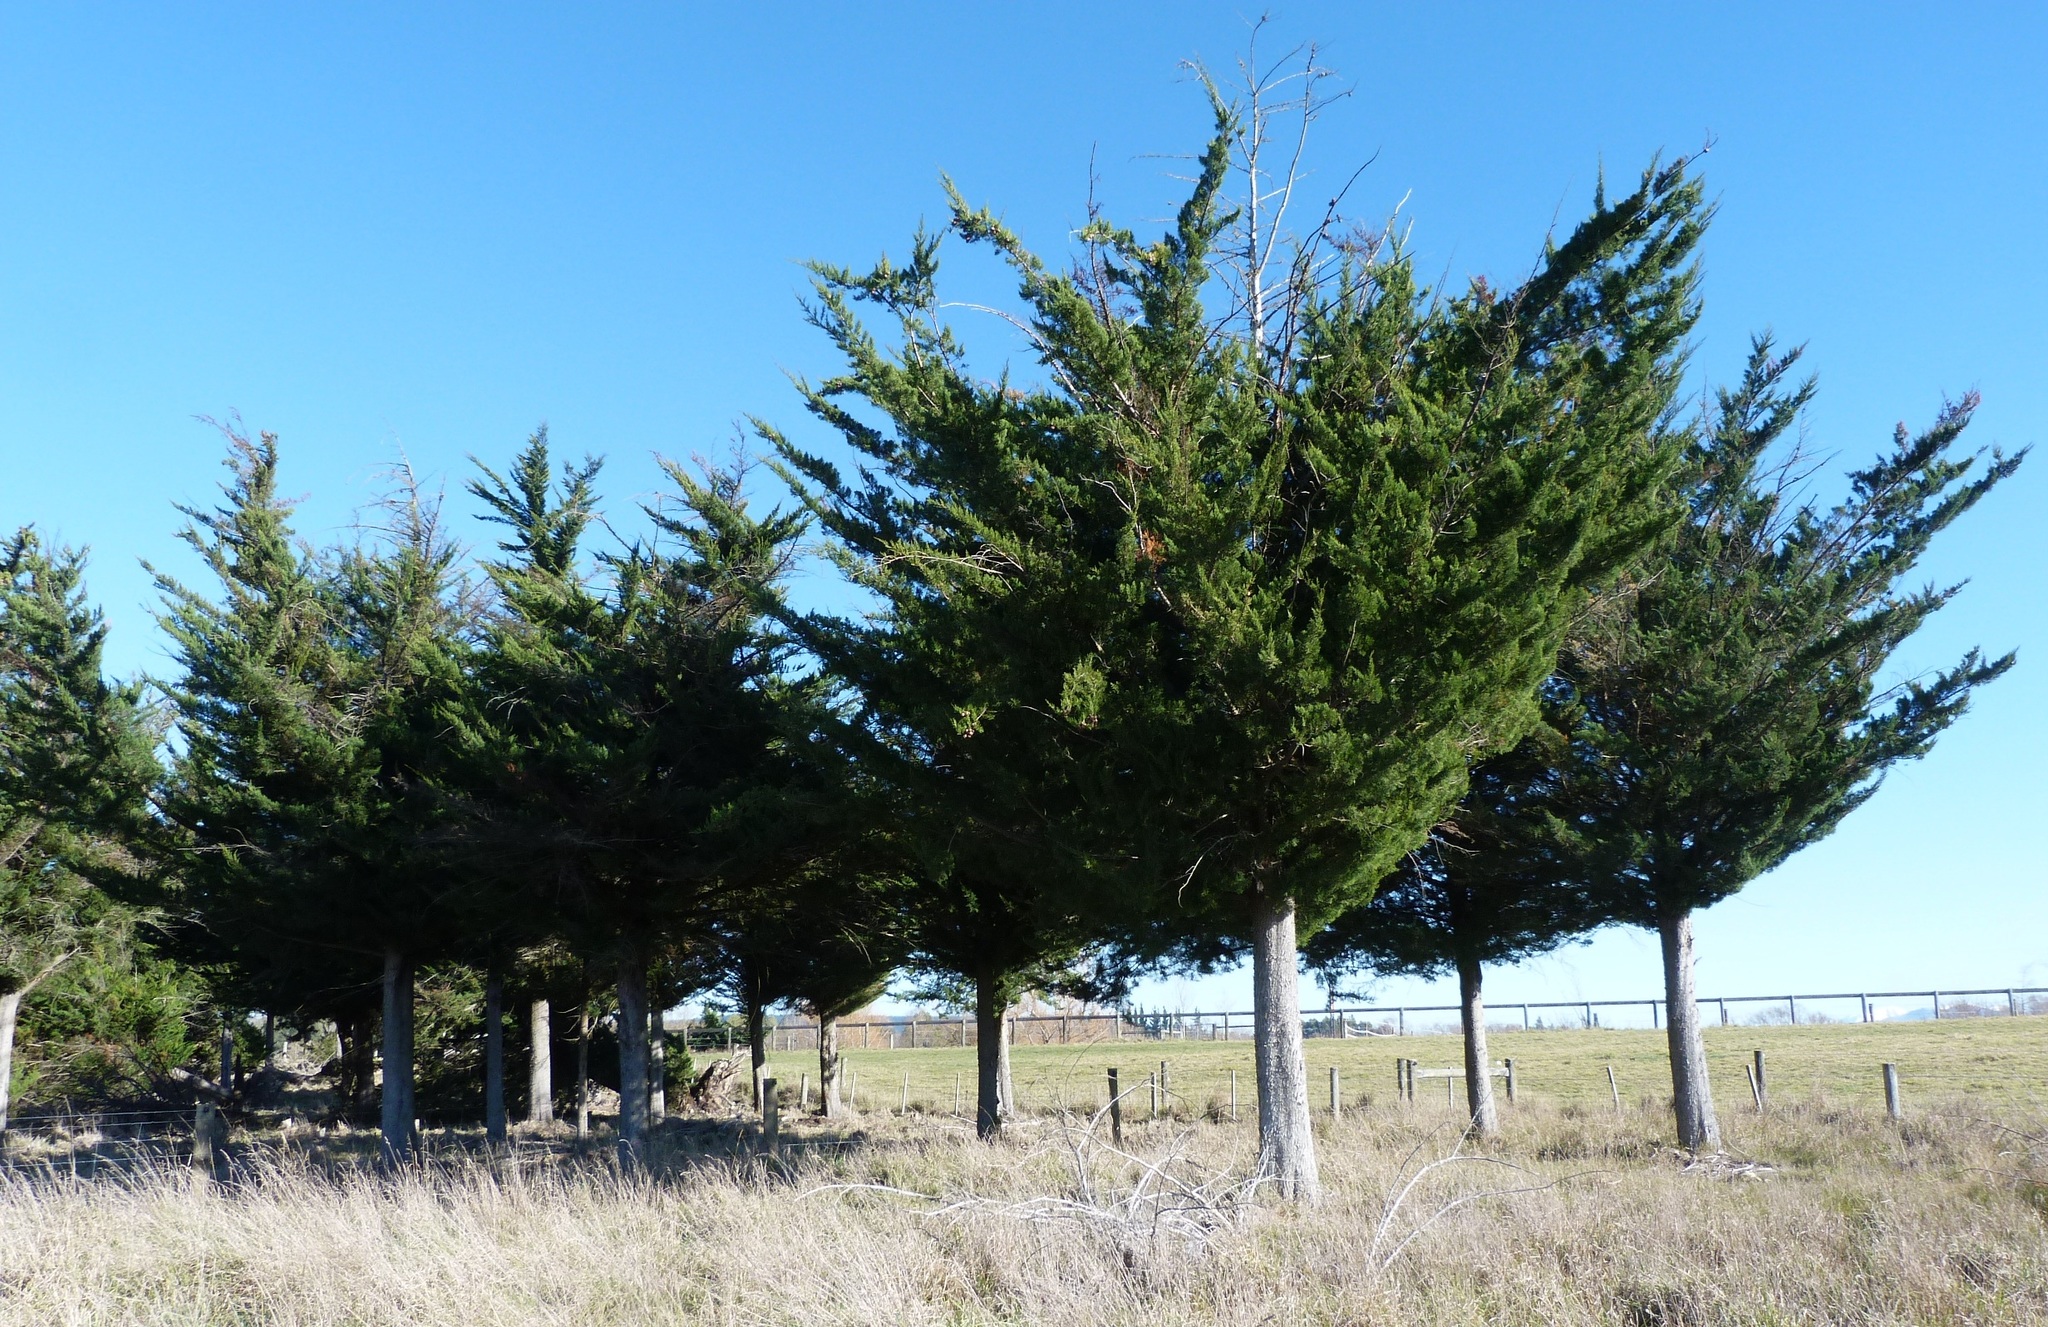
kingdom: Plantae
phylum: Tracheophyta
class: Pinopsida
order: Pinales
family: Cupressaceae
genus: Cupressus
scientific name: Cupressus macrocarpa
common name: Monterey cypress
